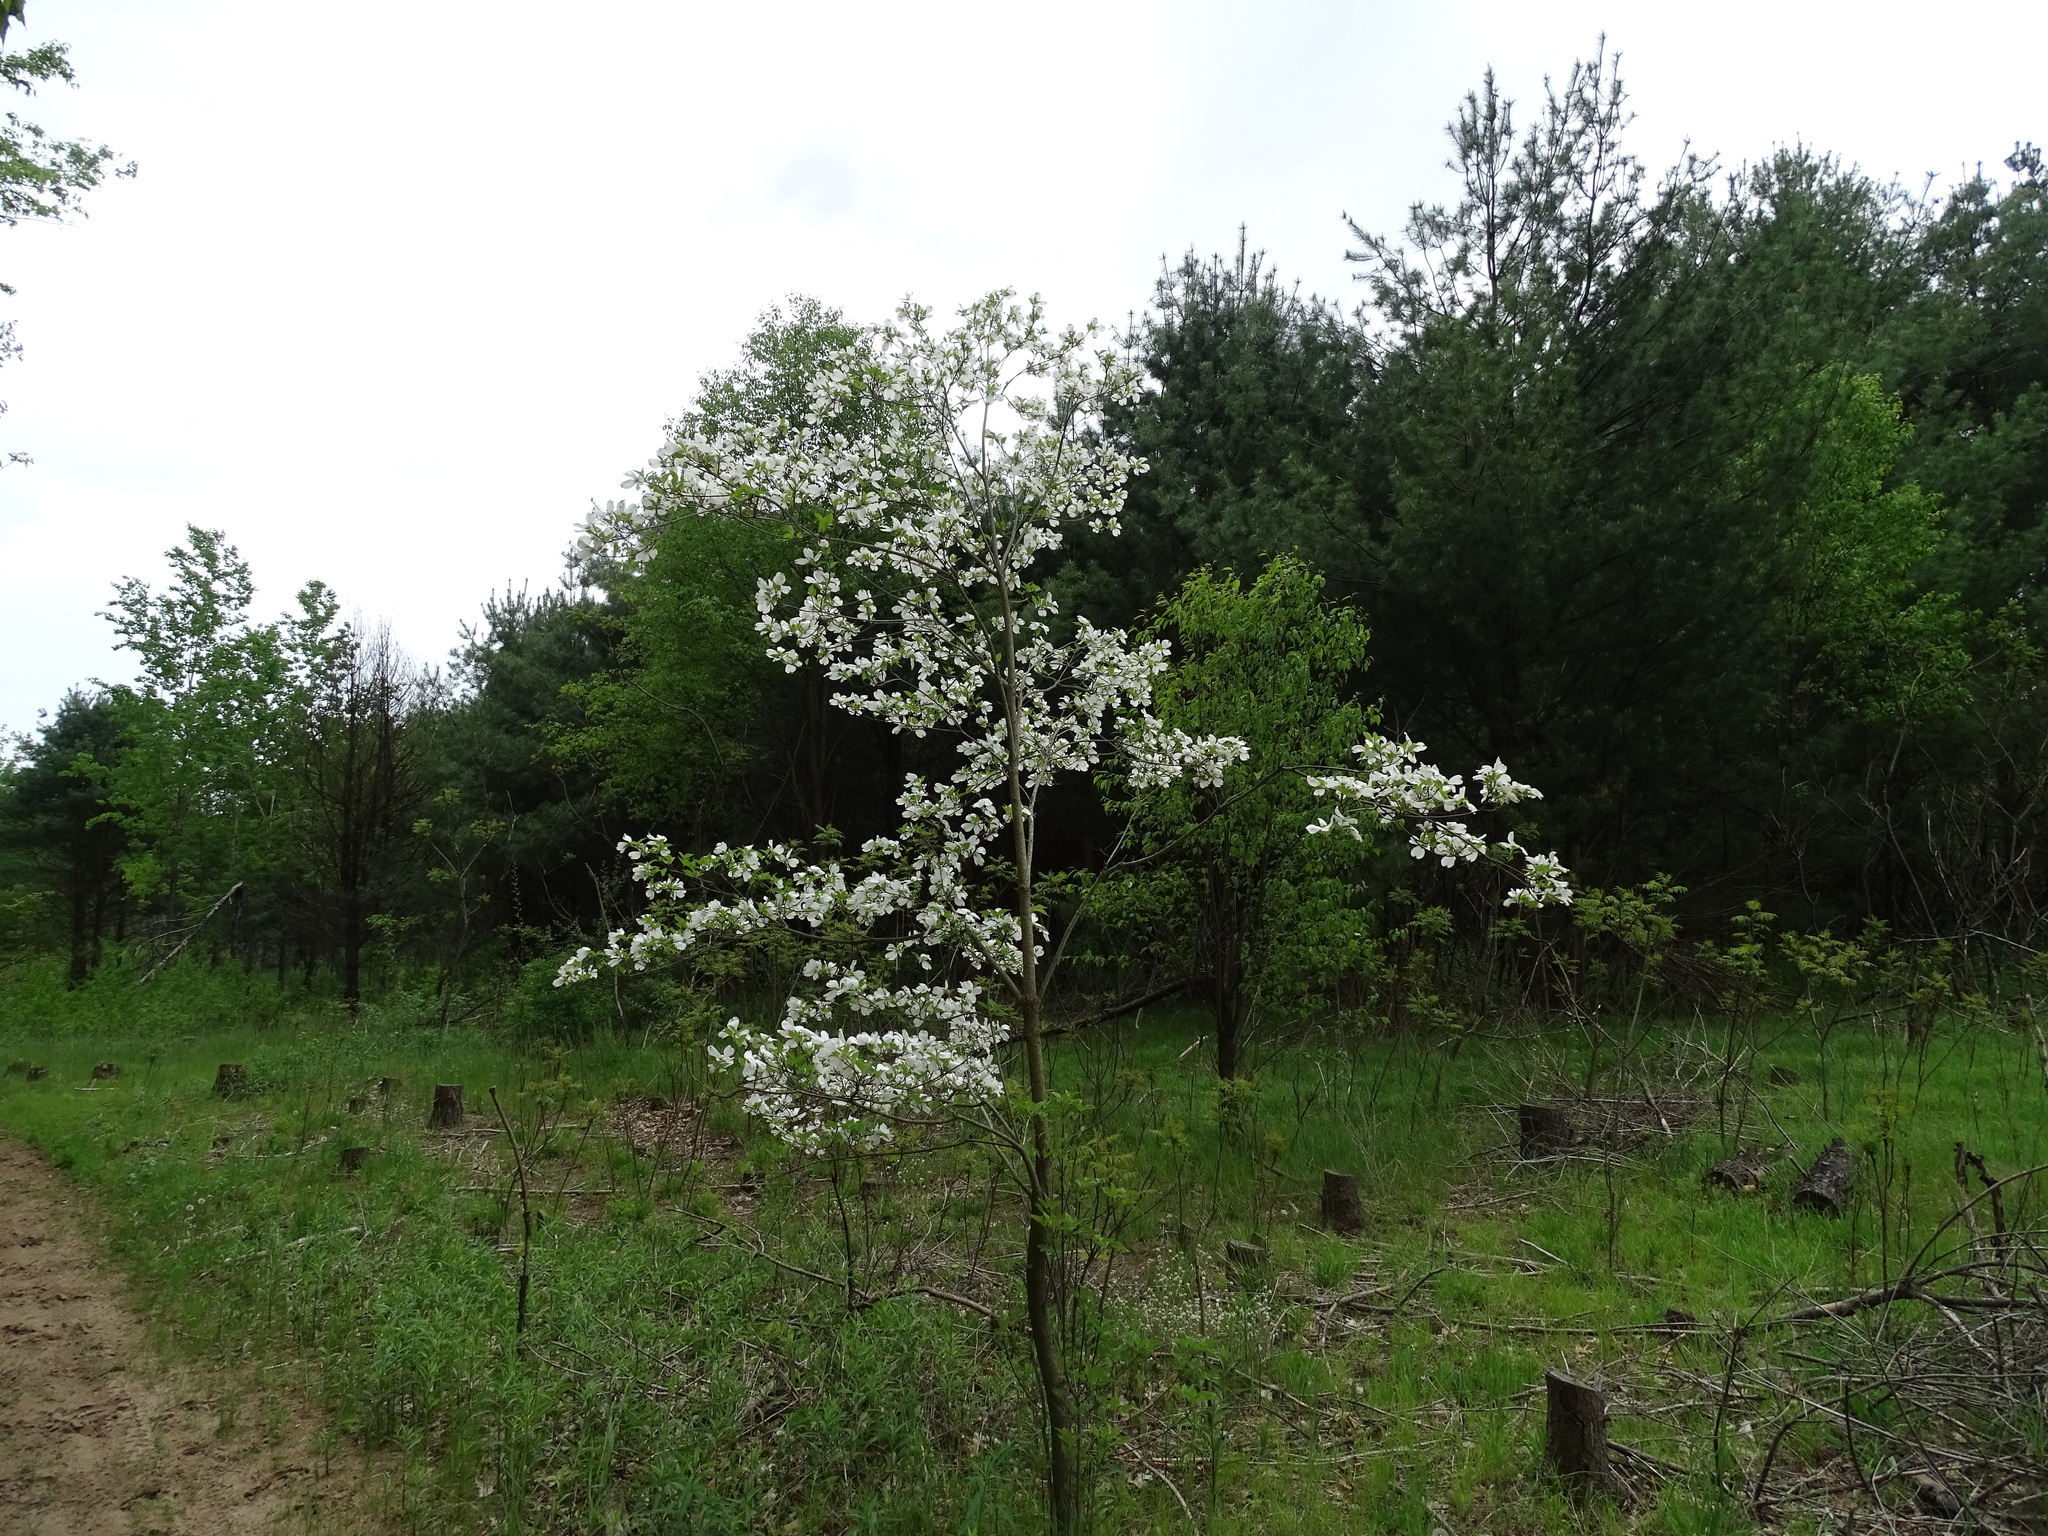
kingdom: Plantae
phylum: Tracheophyta
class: Magnoliopsida
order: Cornales
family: Cornaceae
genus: Cornus
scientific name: Cornus florida
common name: Flowering dogwood
